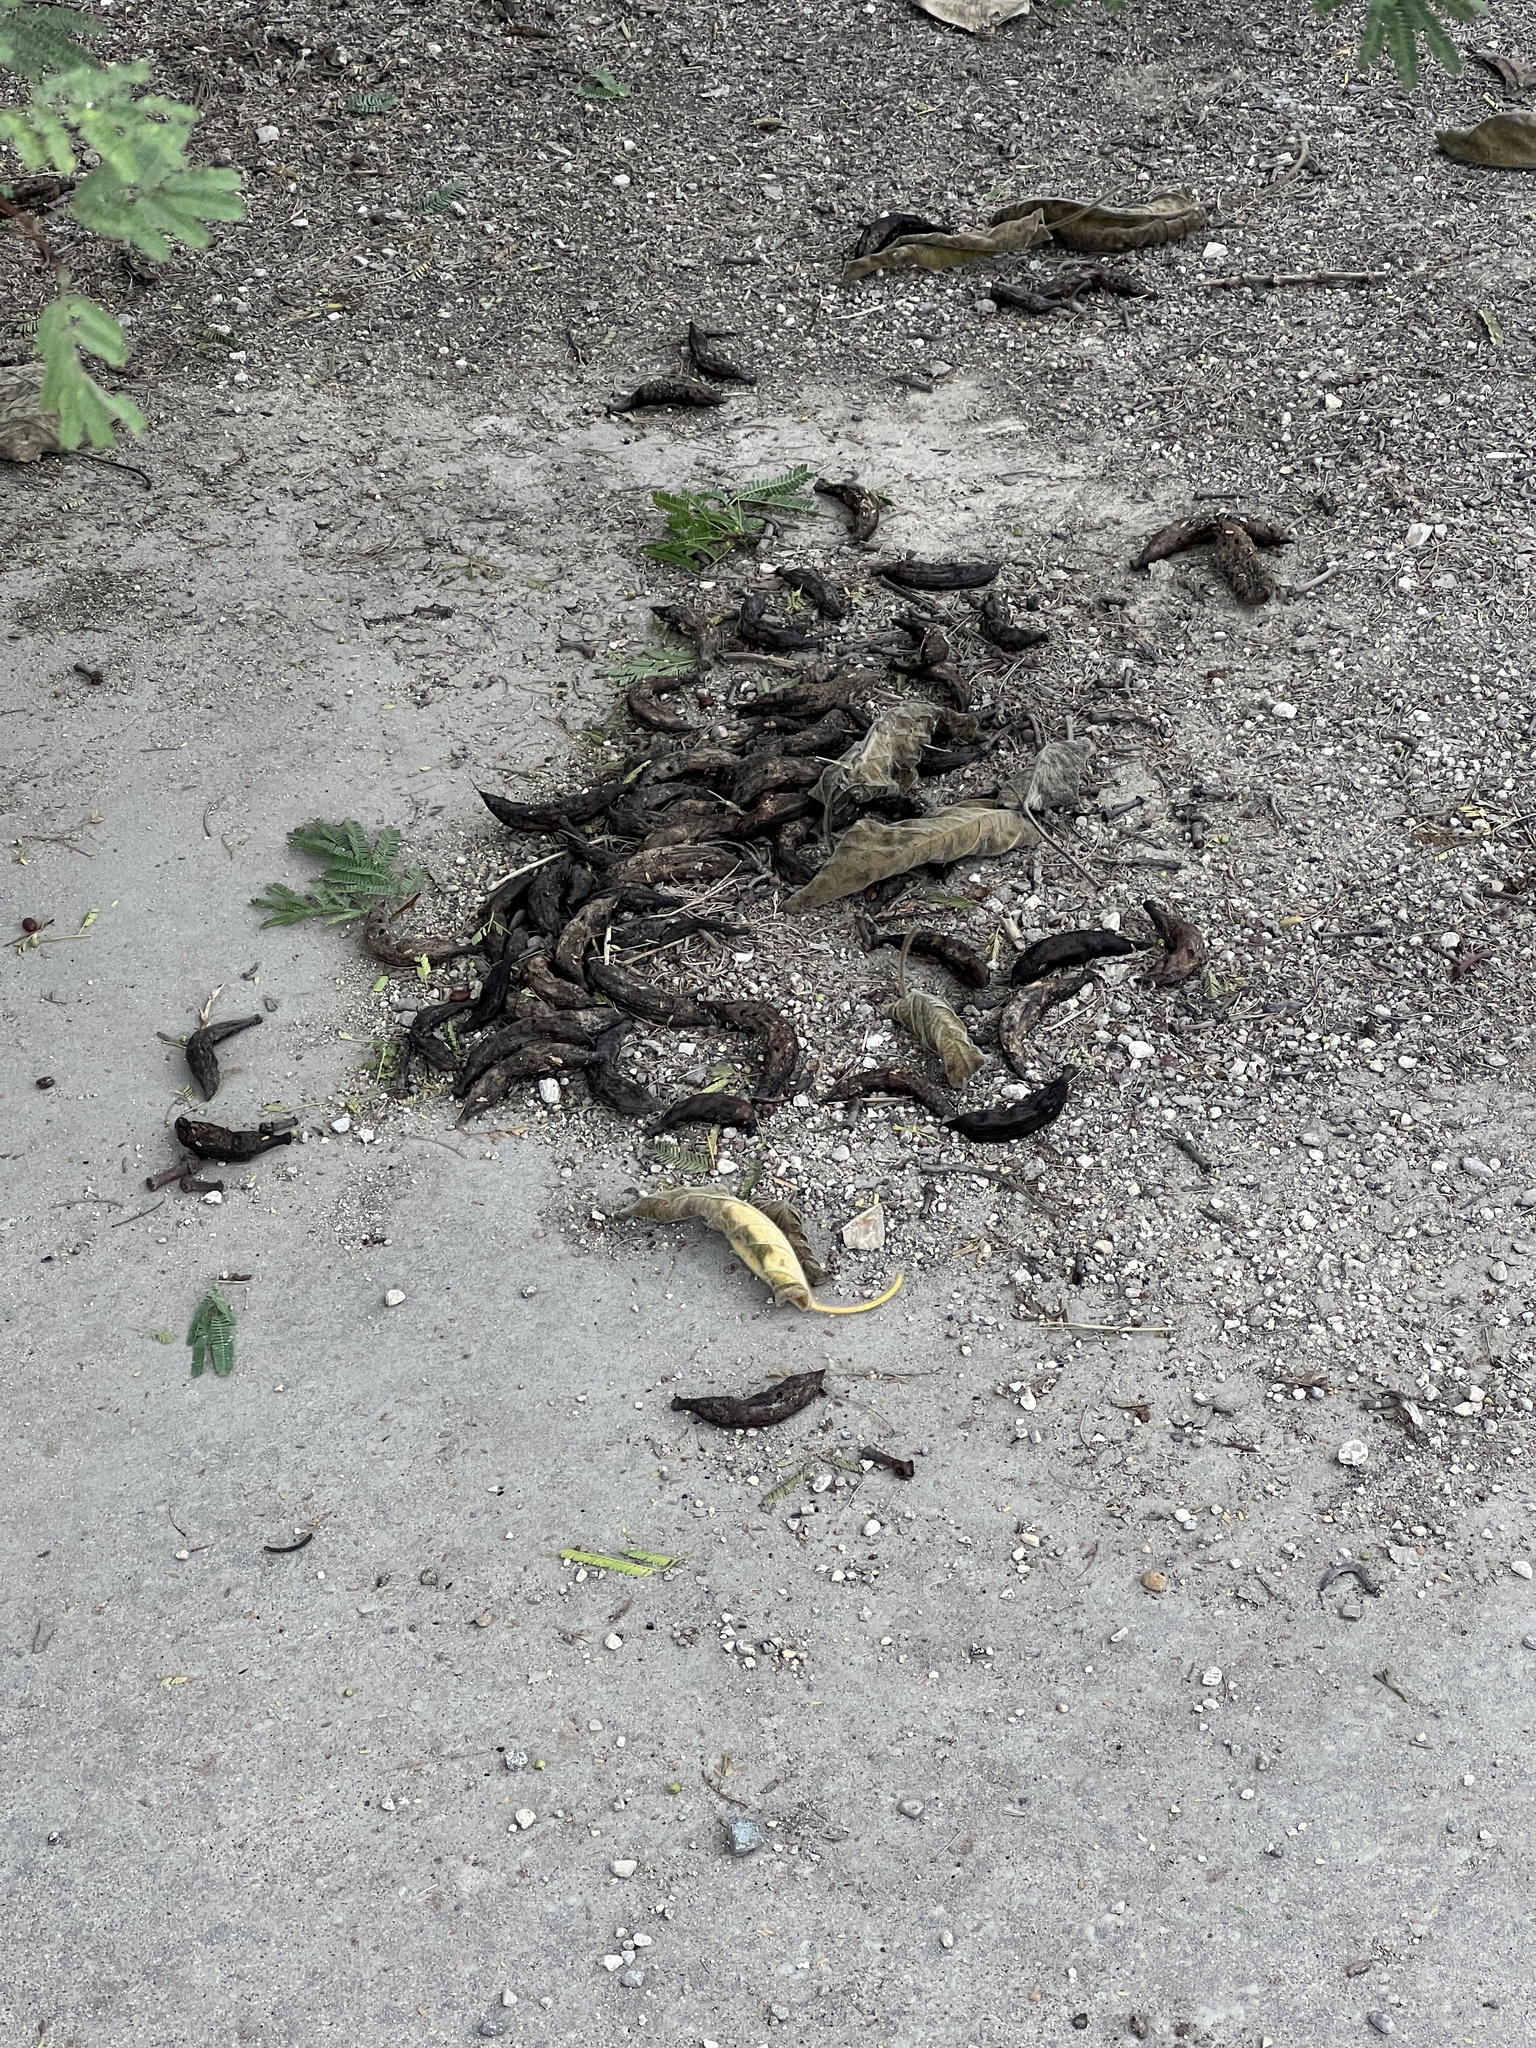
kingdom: Plantae
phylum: Tracheophyta
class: Magnoliopsida
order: Fabales
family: Fabaceae
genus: Vachellia
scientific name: Vachellia farnesiana
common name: Sweet acacia
